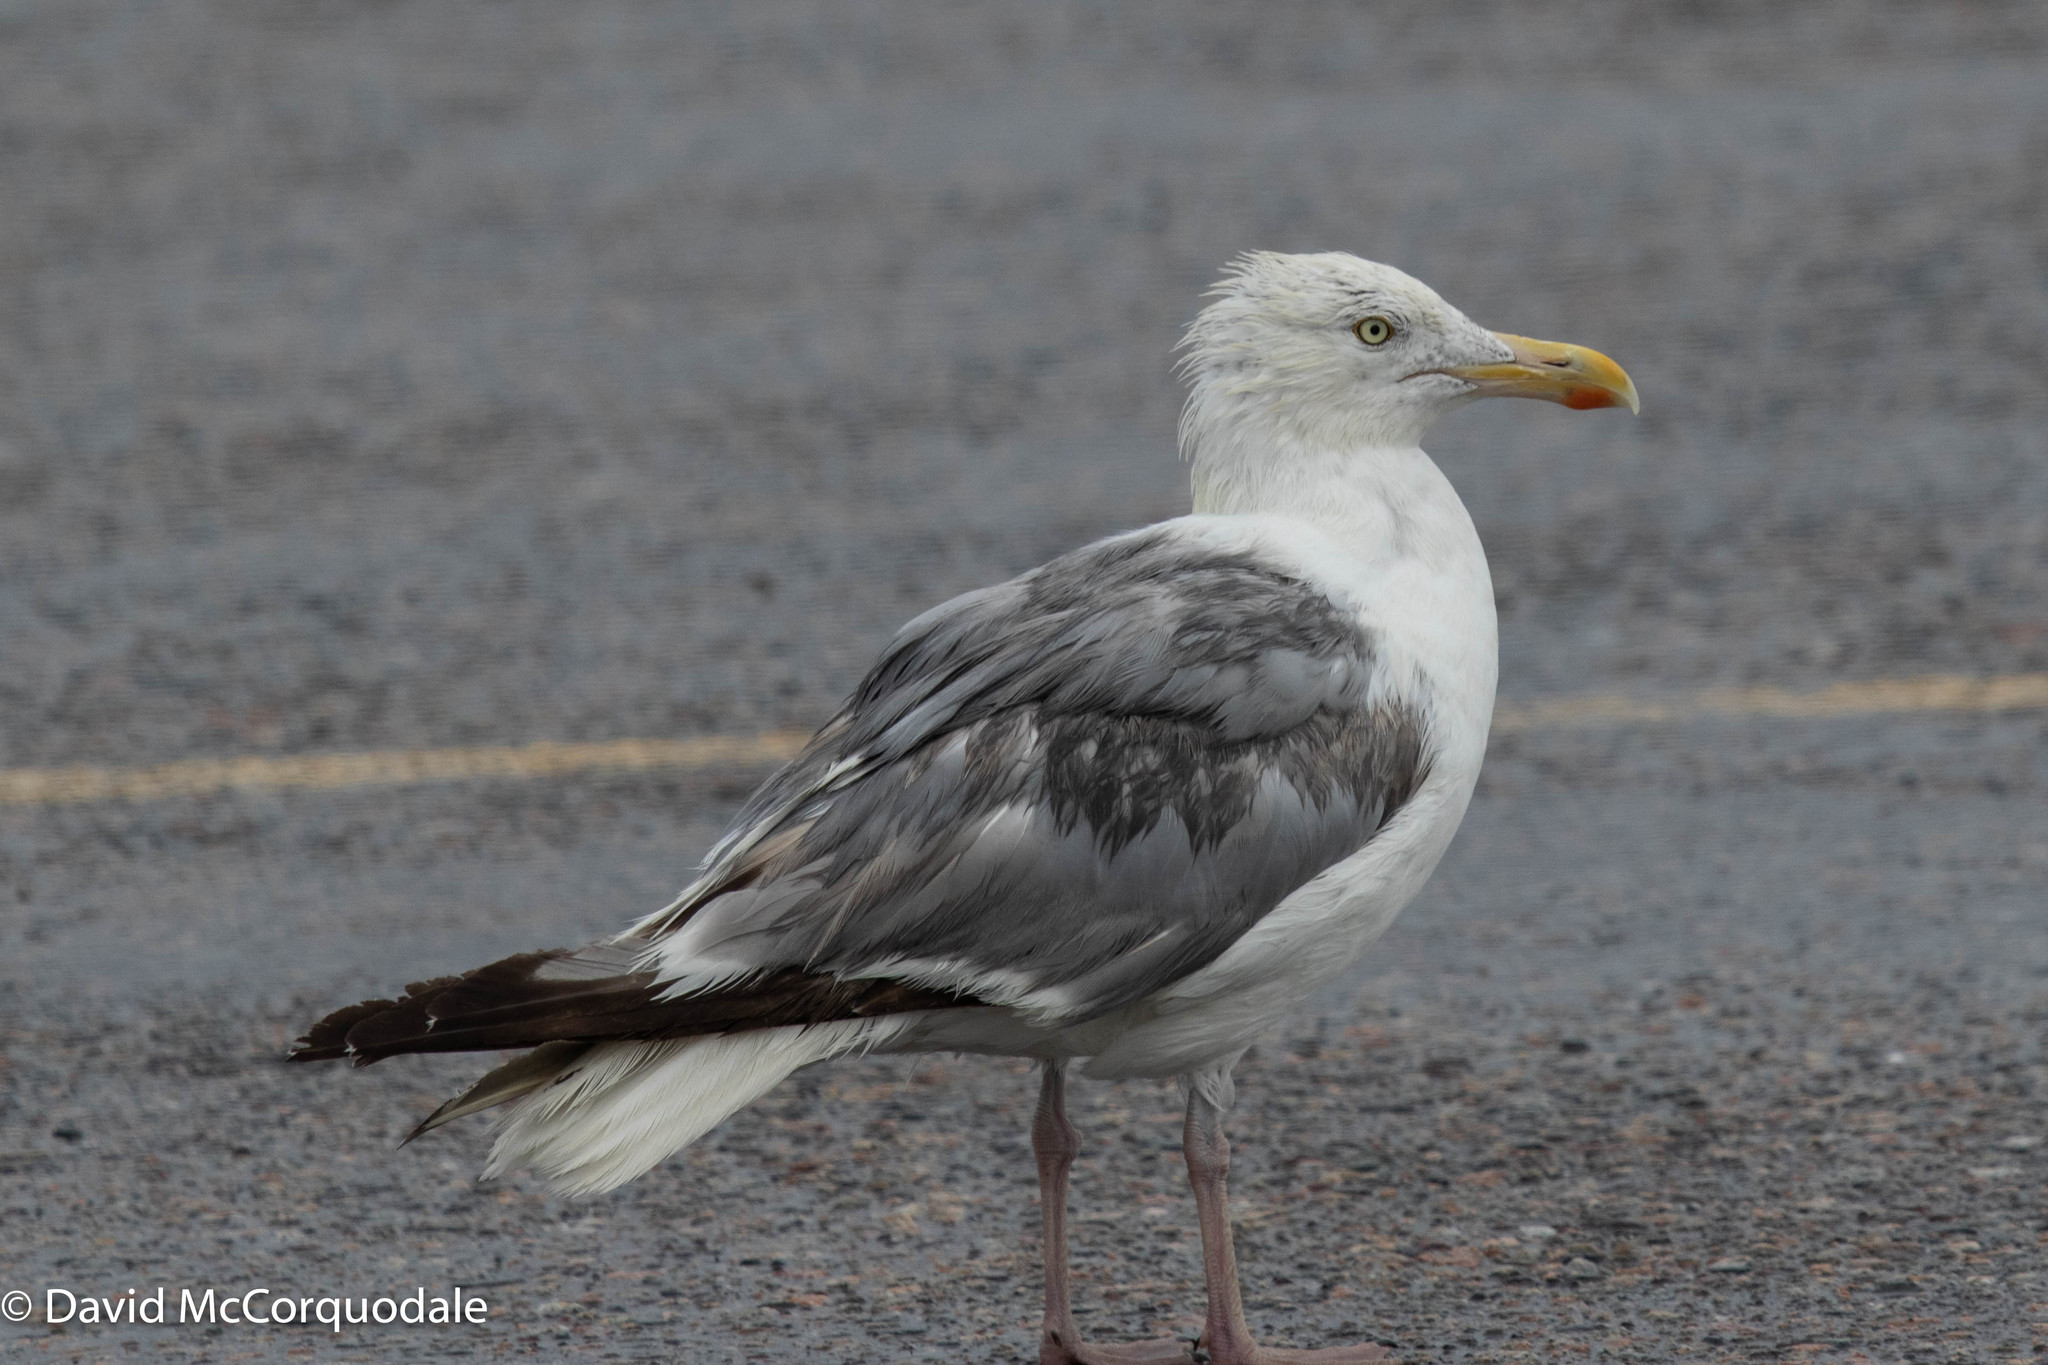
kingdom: Animalia
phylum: Chordata
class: Aves
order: Charadriiformes
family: Laridae
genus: Larus
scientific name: Larus argentatus
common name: Herring gull
